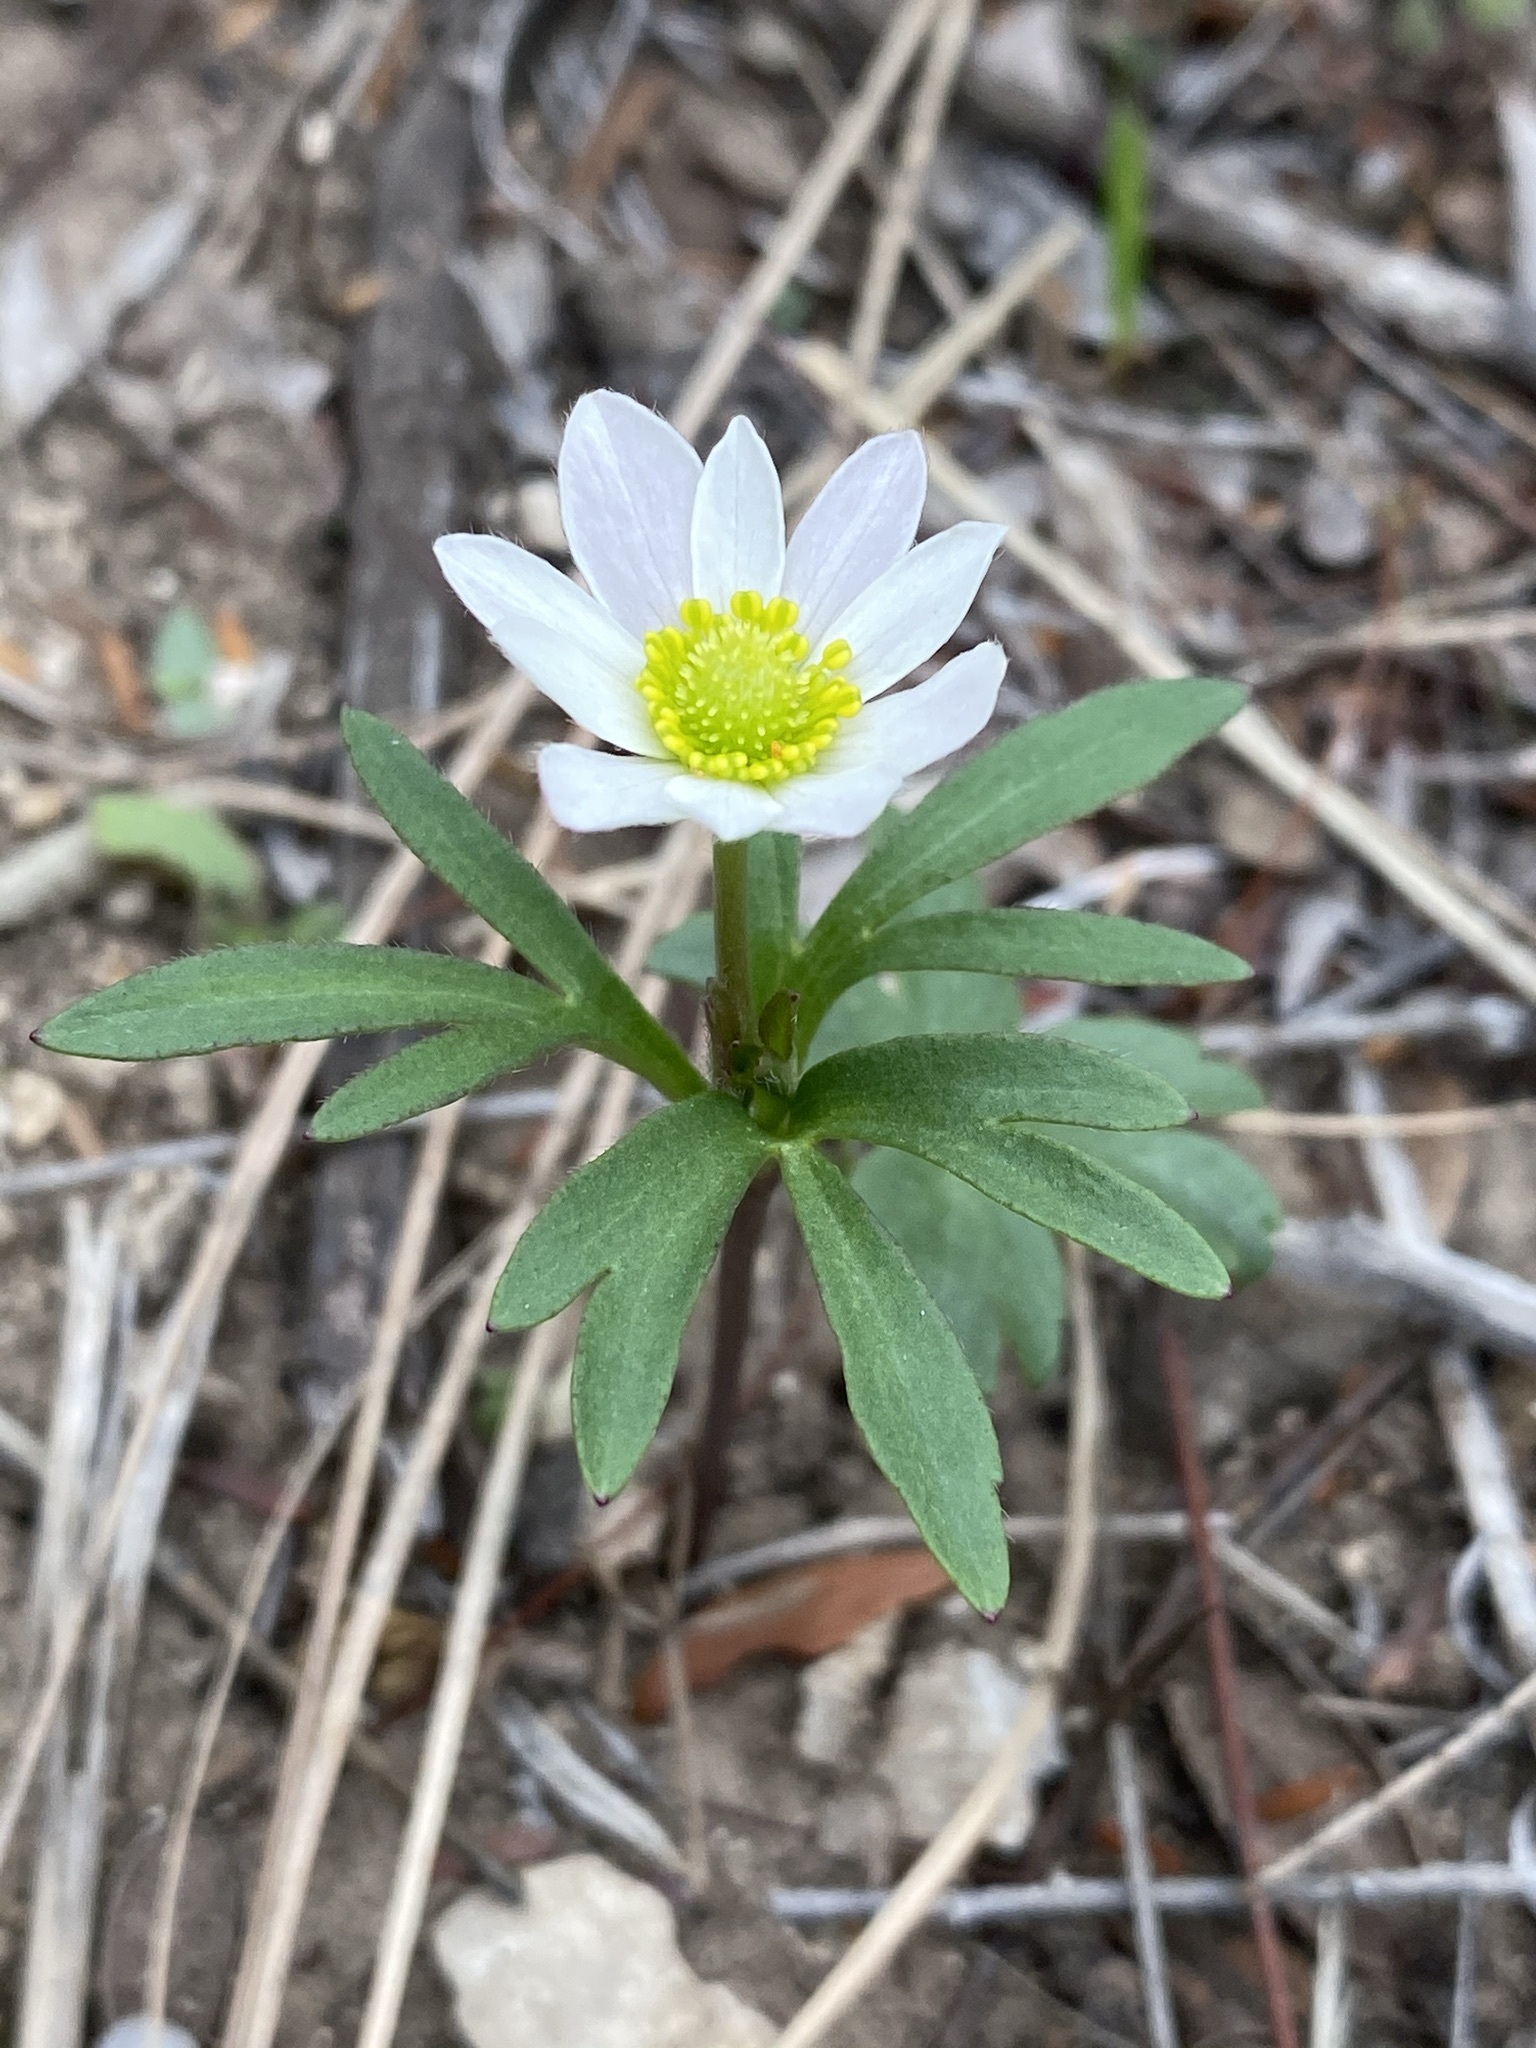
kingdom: Plantae
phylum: Tracheophyta
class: Magnoliopsida
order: Ranunculales
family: Ranunculaceae
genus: Anemone
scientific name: Anemone edwardsiana
